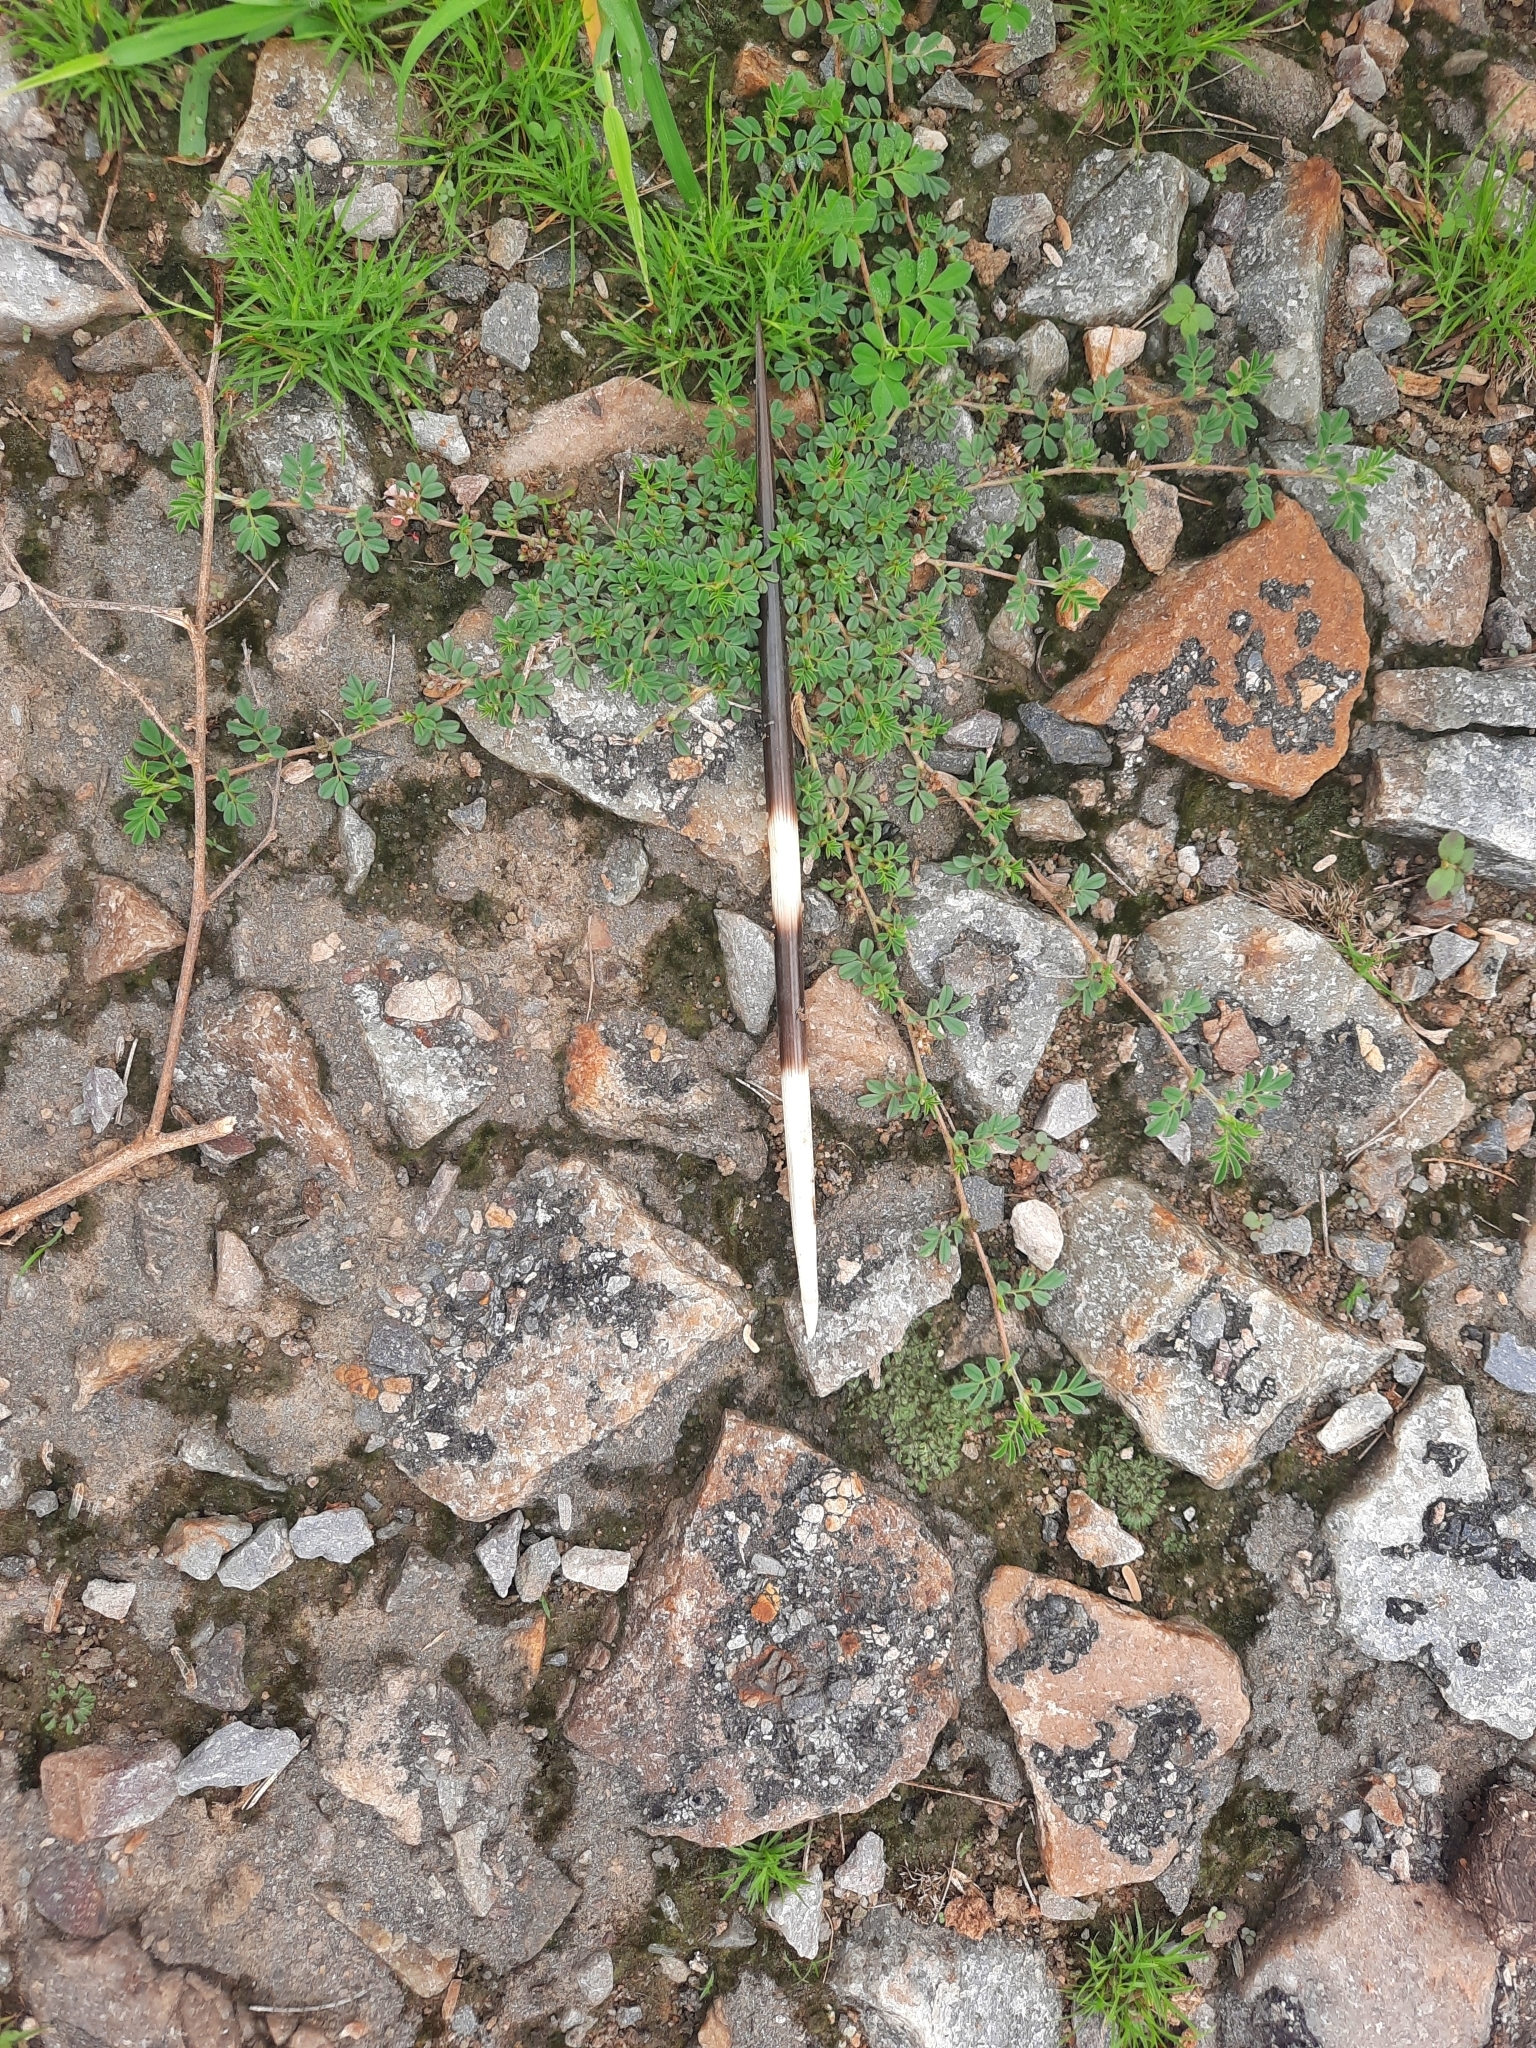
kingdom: Animalia
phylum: Chordata
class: Mammalia
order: Rodentia
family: Hystricidae
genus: Hystrix
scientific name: Hystrix indica
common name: Indian crested porcupine
